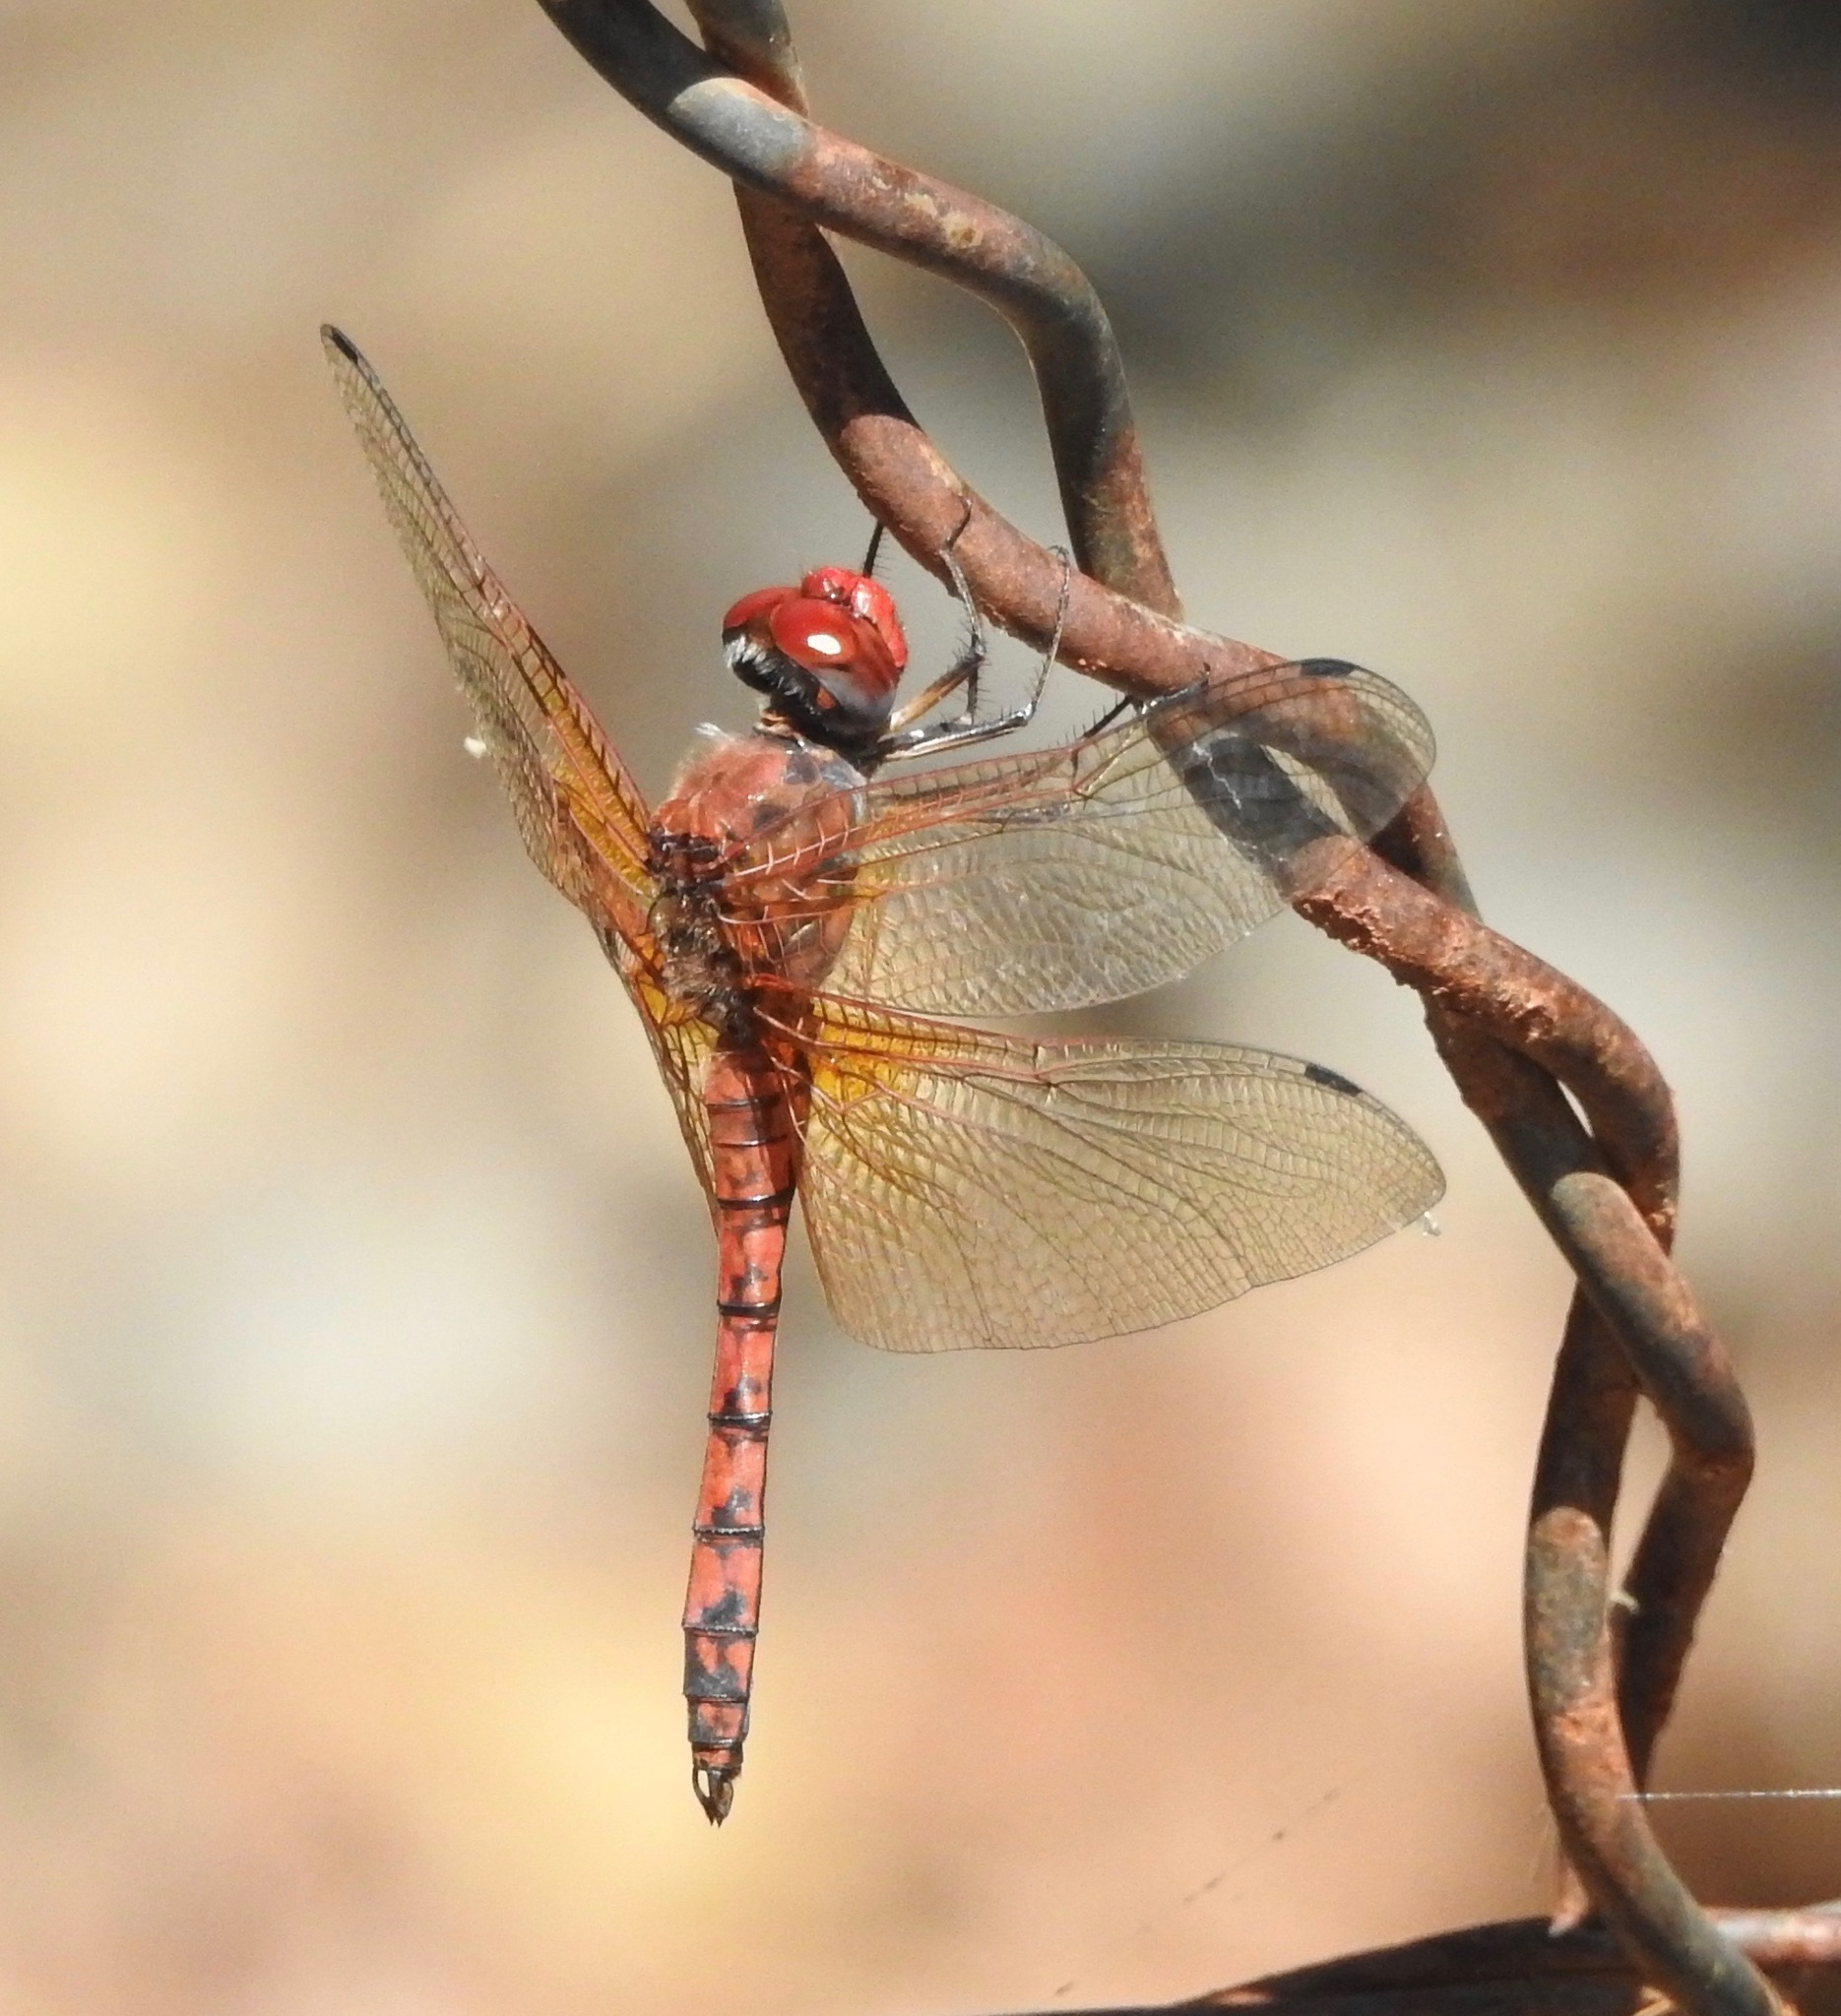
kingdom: Animalia
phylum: Arthropoda
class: Insecta
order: Odonata
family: Libellulidae
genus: Paltothemis
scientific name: Paltothemis lineatipes
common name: Red rock skimmer
